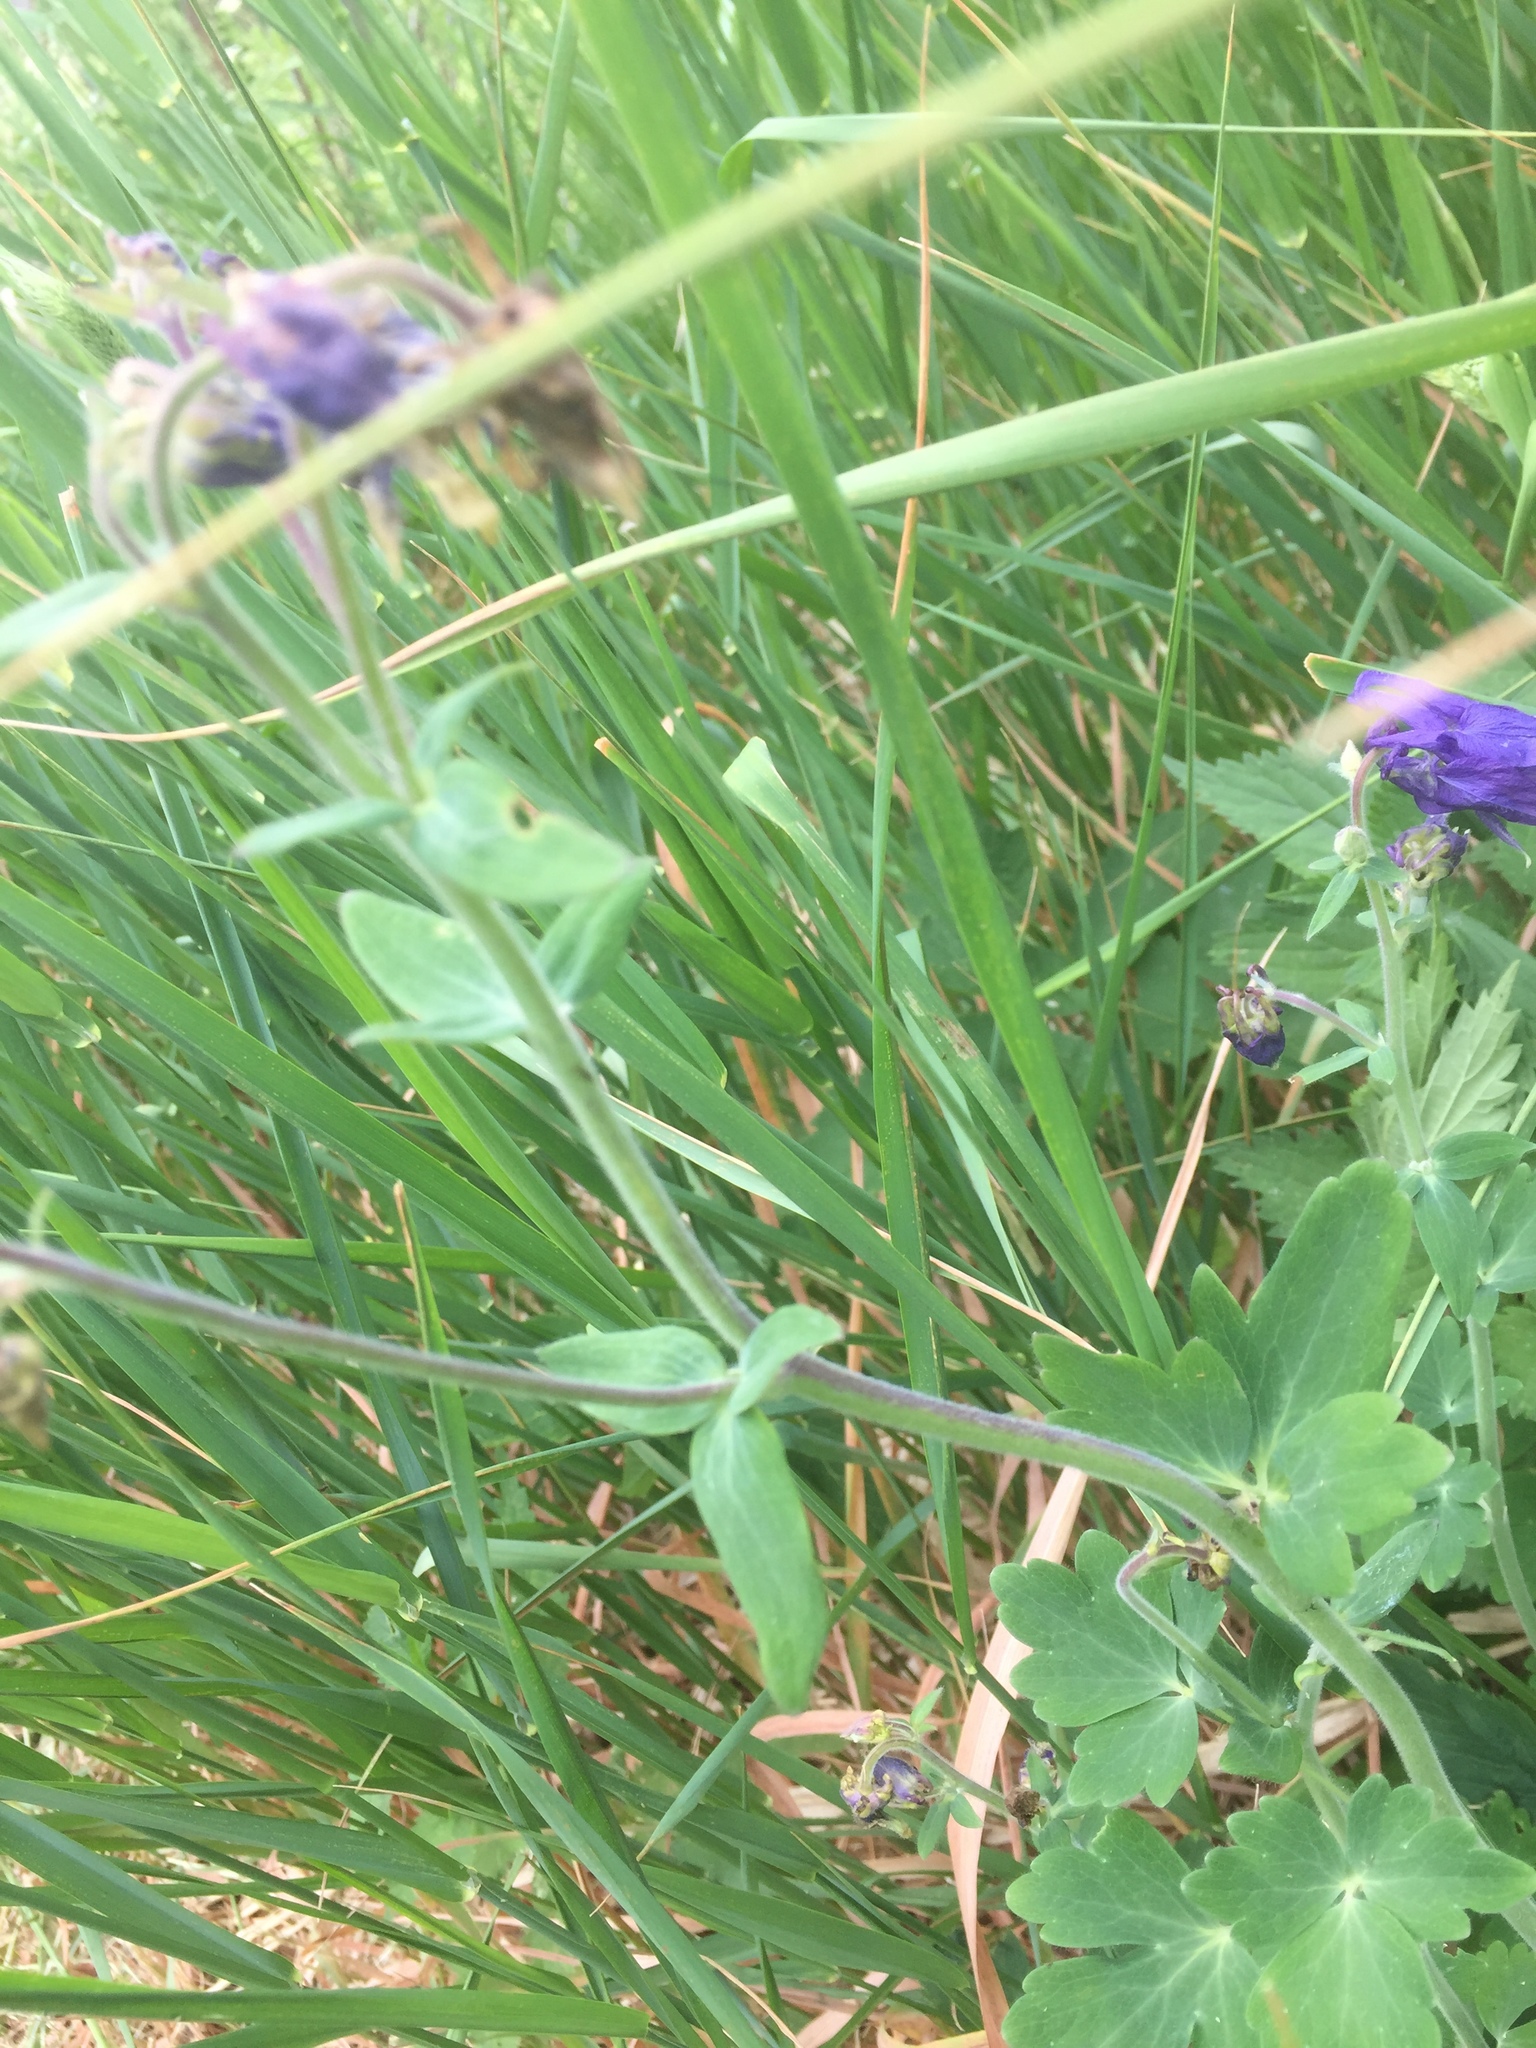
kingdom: Plantae
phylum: Tracheophyta
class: Magnoliopsida
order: Ranunculales
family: Ranunculaceae
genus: Aquilegia
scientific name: Aquilegia vulgaris
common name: Columbine
